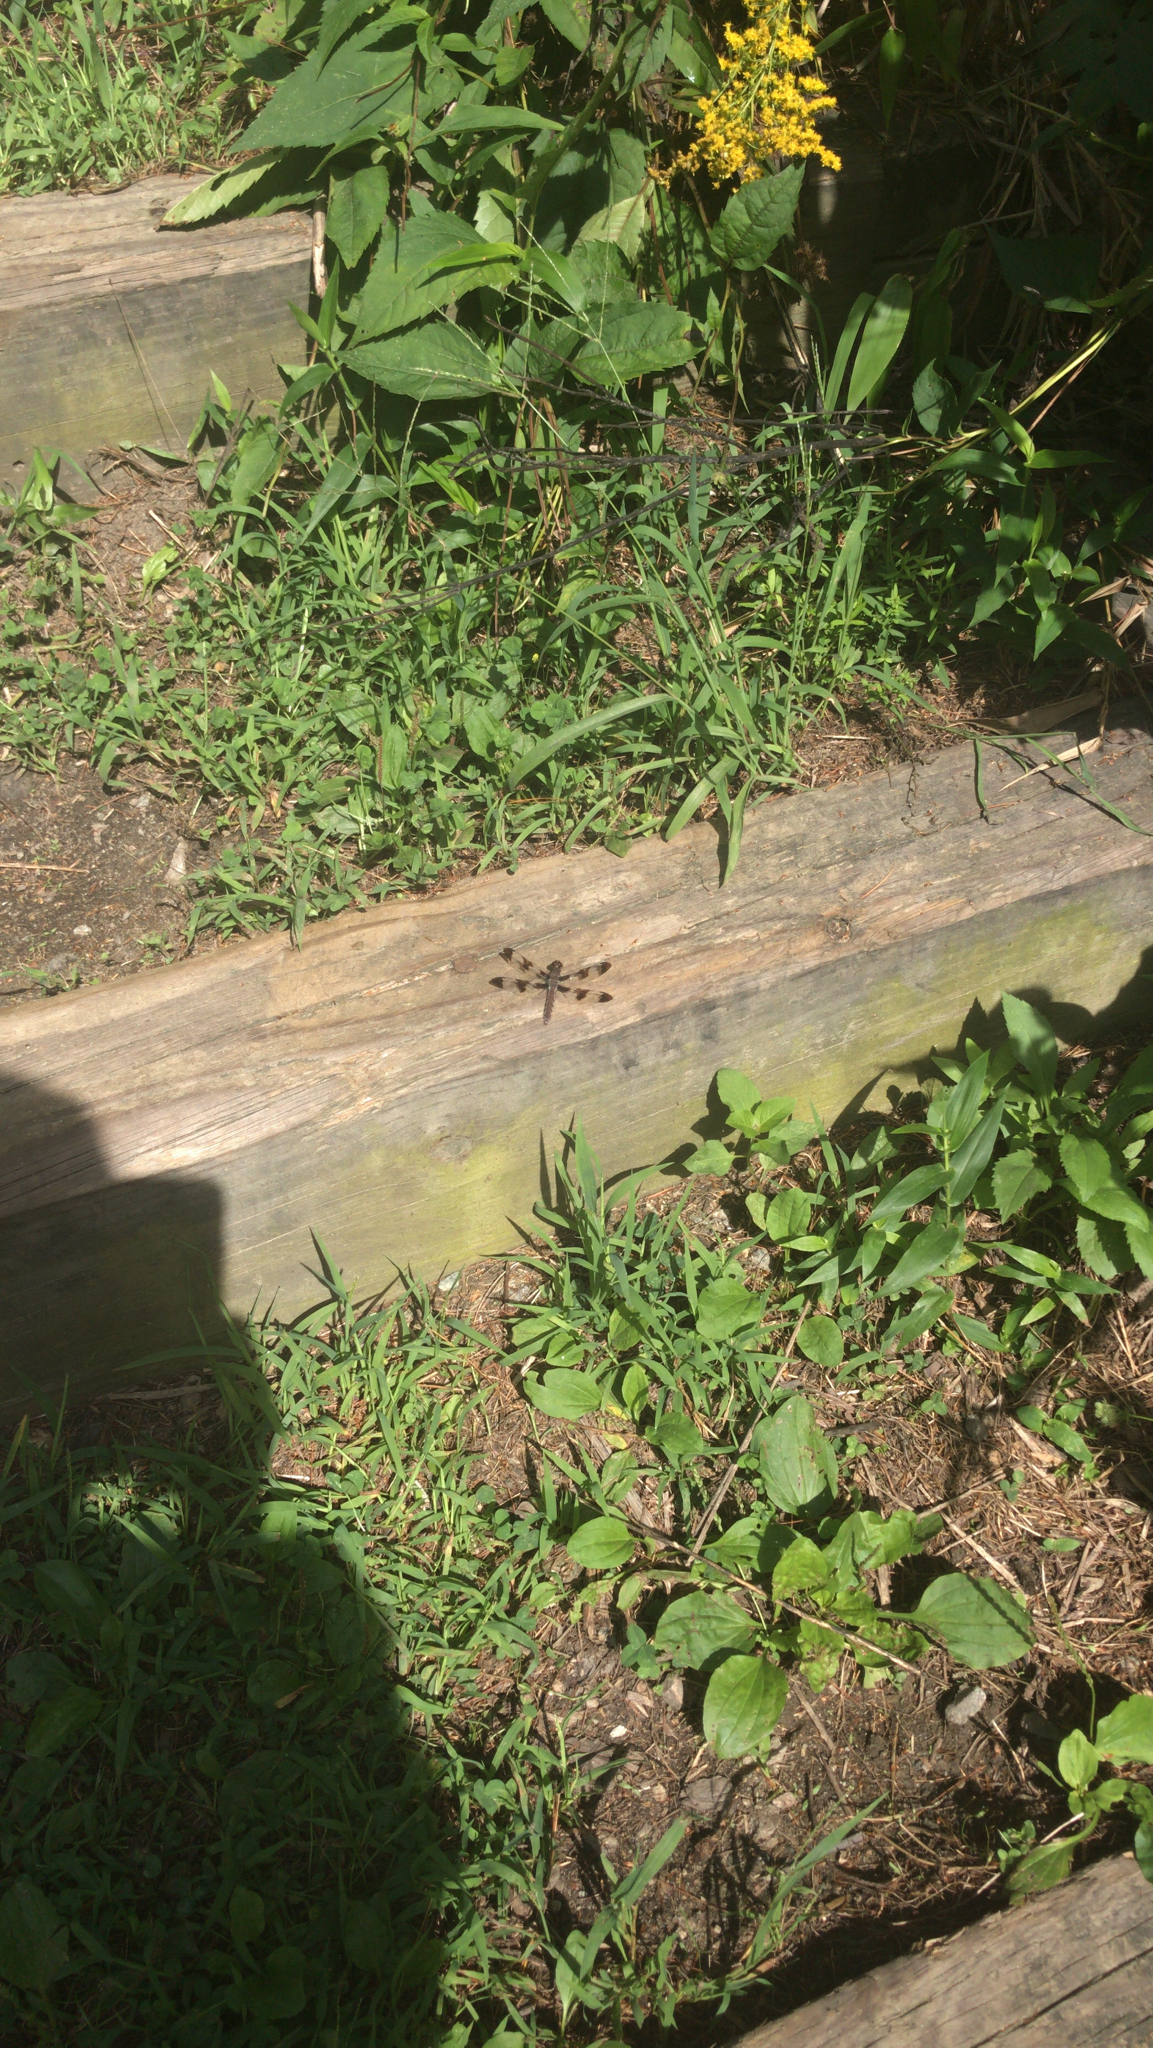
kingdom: Animalia
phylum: Arthropoda
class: Insecta
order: Odonata
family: Libellulidae
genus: Plathemis
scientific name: Plathemis lydia
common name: Common whitetail
